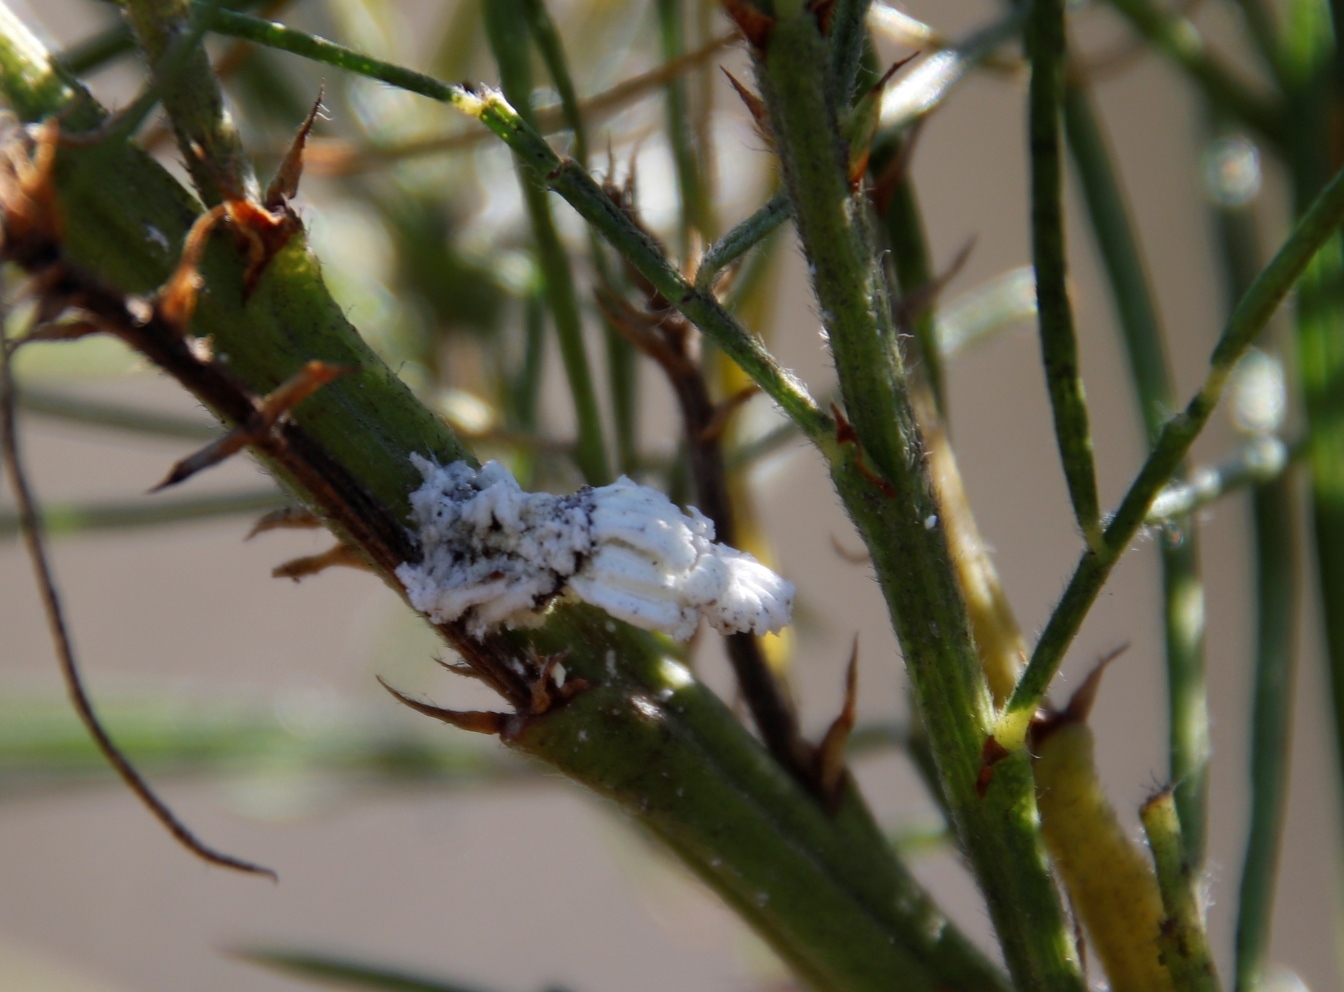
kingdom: Animalia
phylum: Arthropoda
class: Insecta
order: Hemiptera
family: Margarodidae
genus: Icerya
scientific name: Icerya purchasi
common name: Cottony cushion scale
